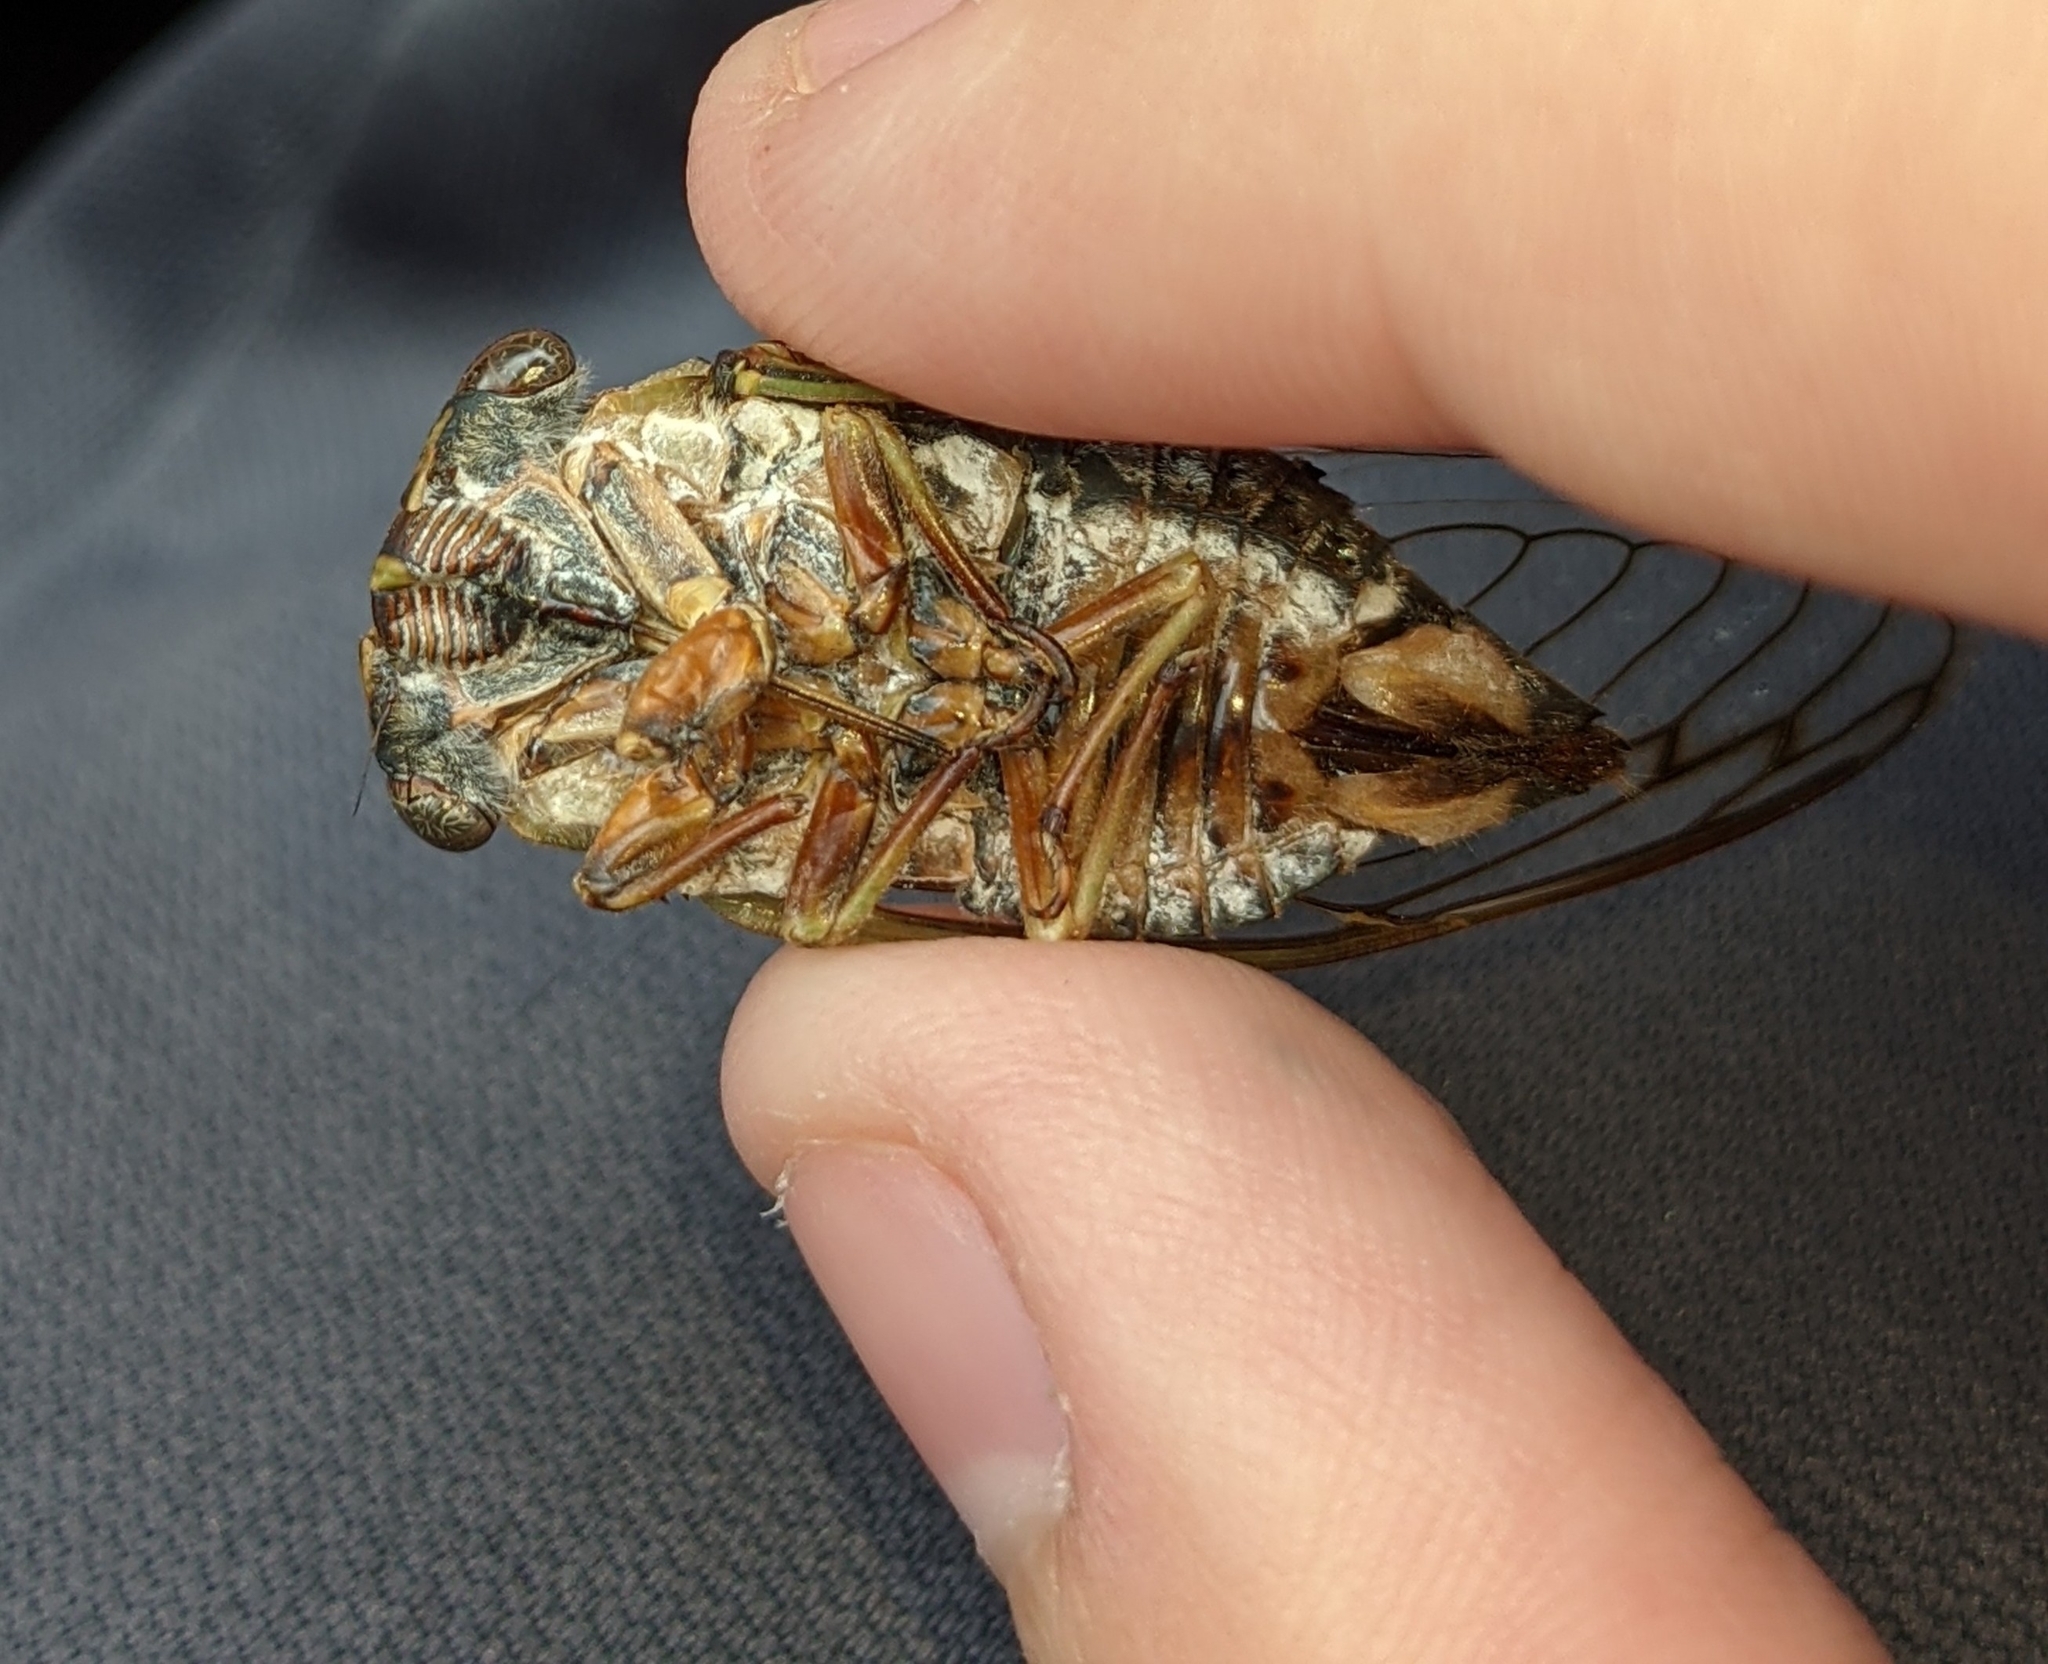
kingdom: Animalia
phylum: Arthropoda
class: Insecta
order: Hemiptera
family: Cicadidae
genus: Neotibicen
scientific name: Neotibicen davisi
